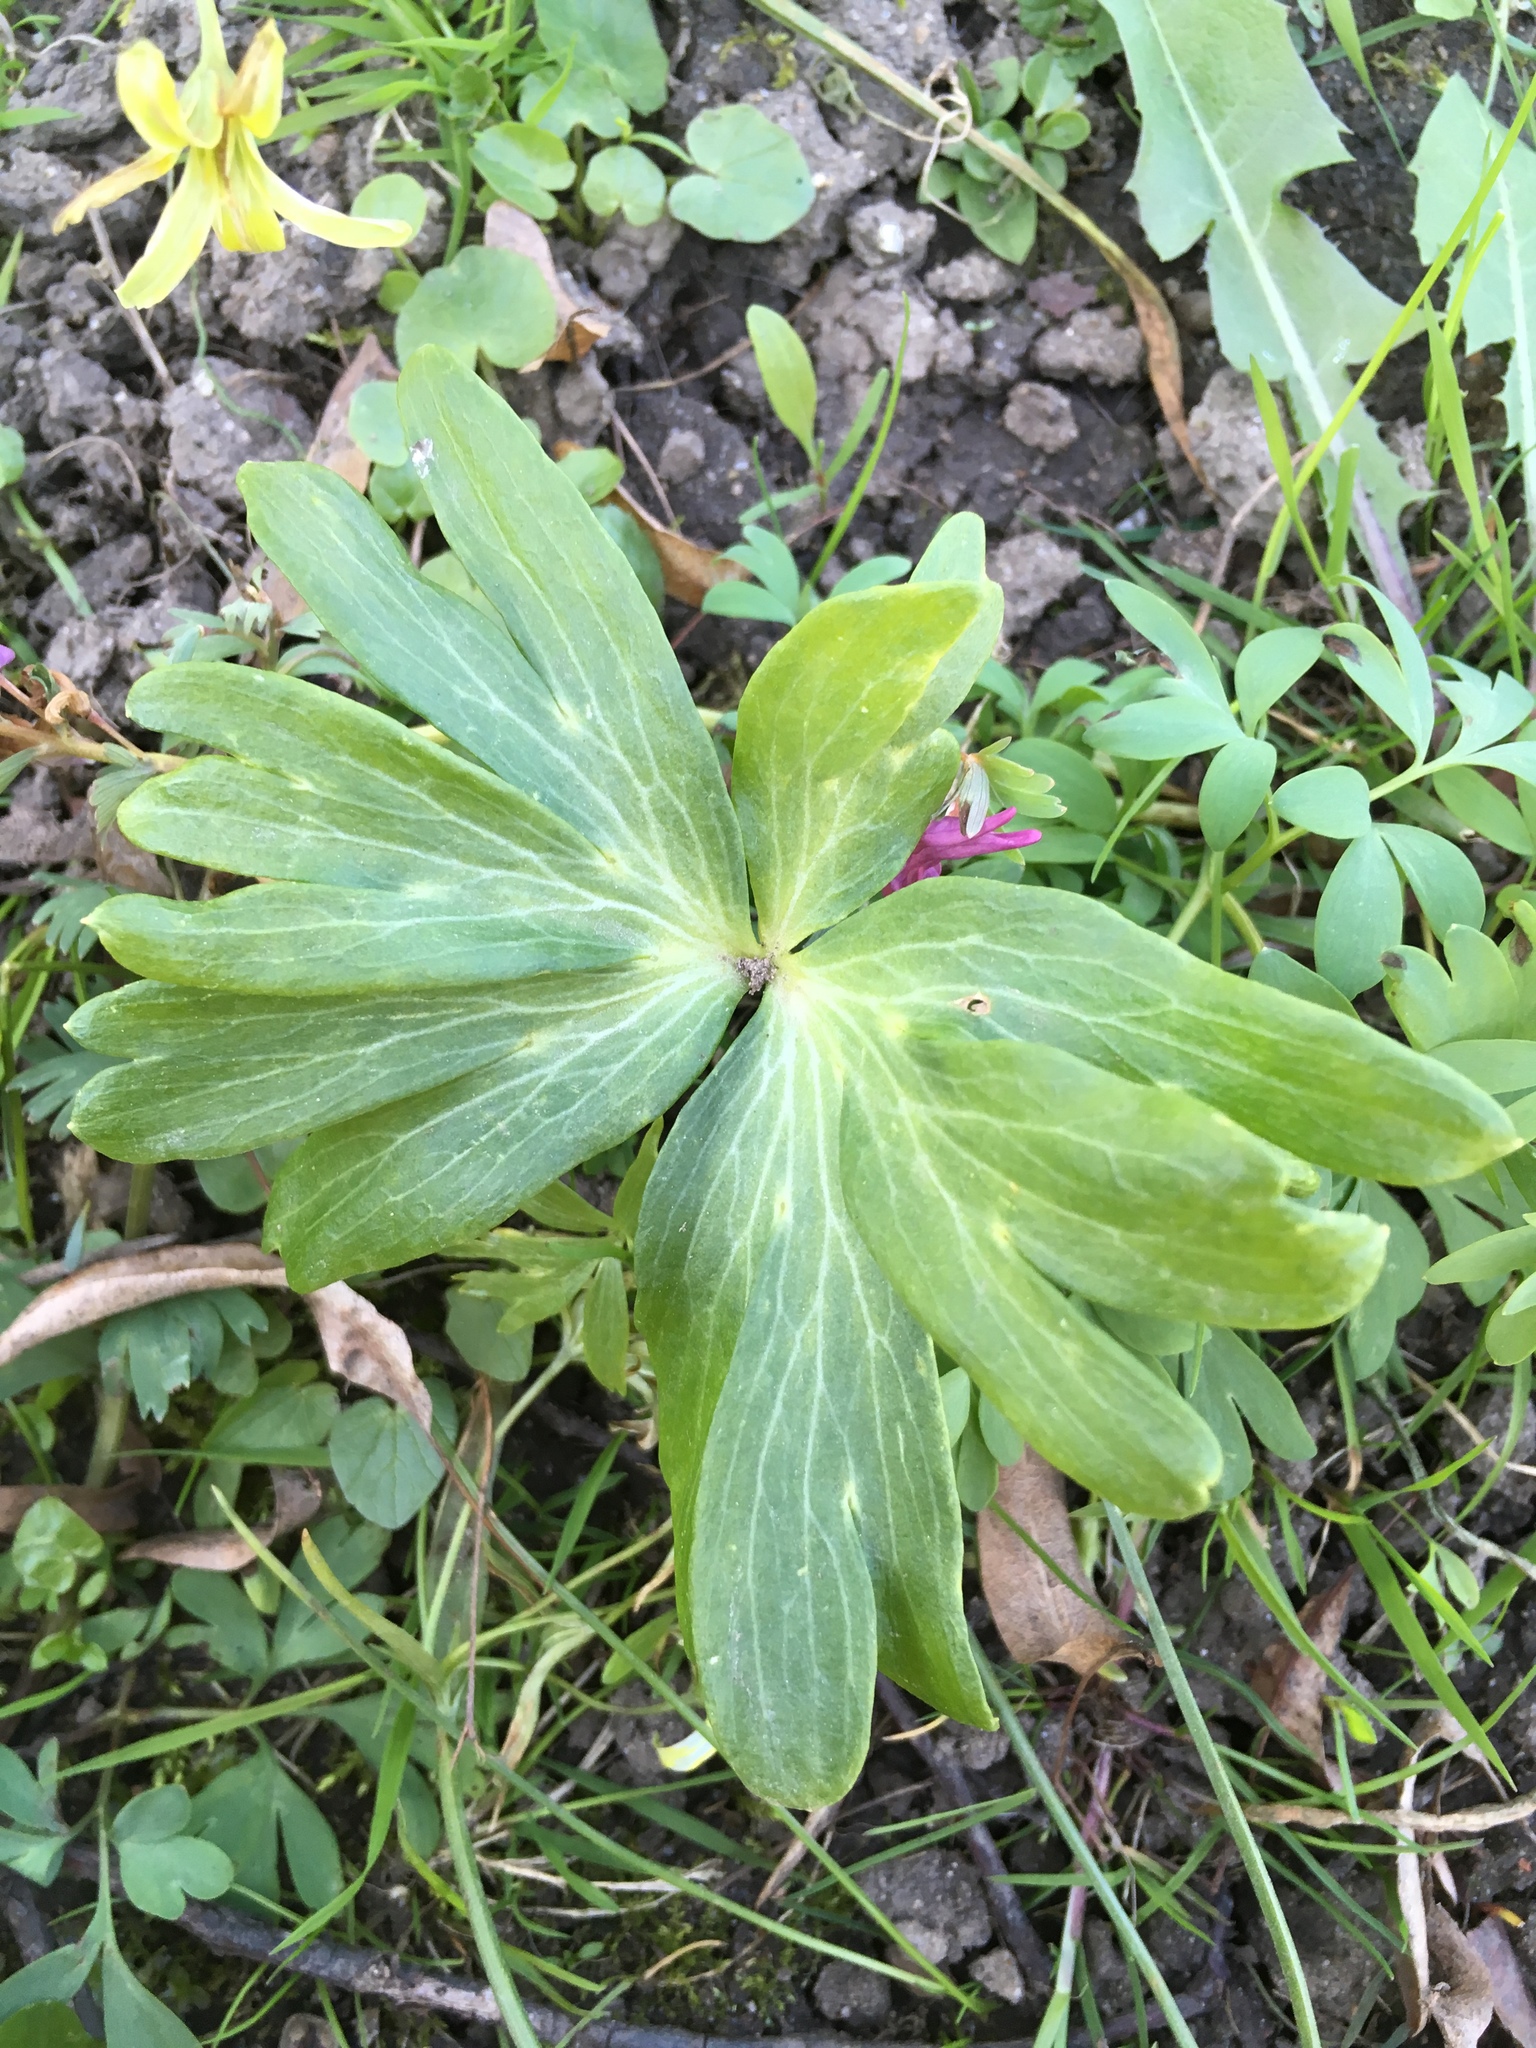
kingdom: Plantae
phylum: Tracheophyta
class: Magnoliopsida
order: Ranunculales
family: Ranunculaceae
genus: Eranthis
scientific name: Eranthis hyemalis
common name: Winter aconite
